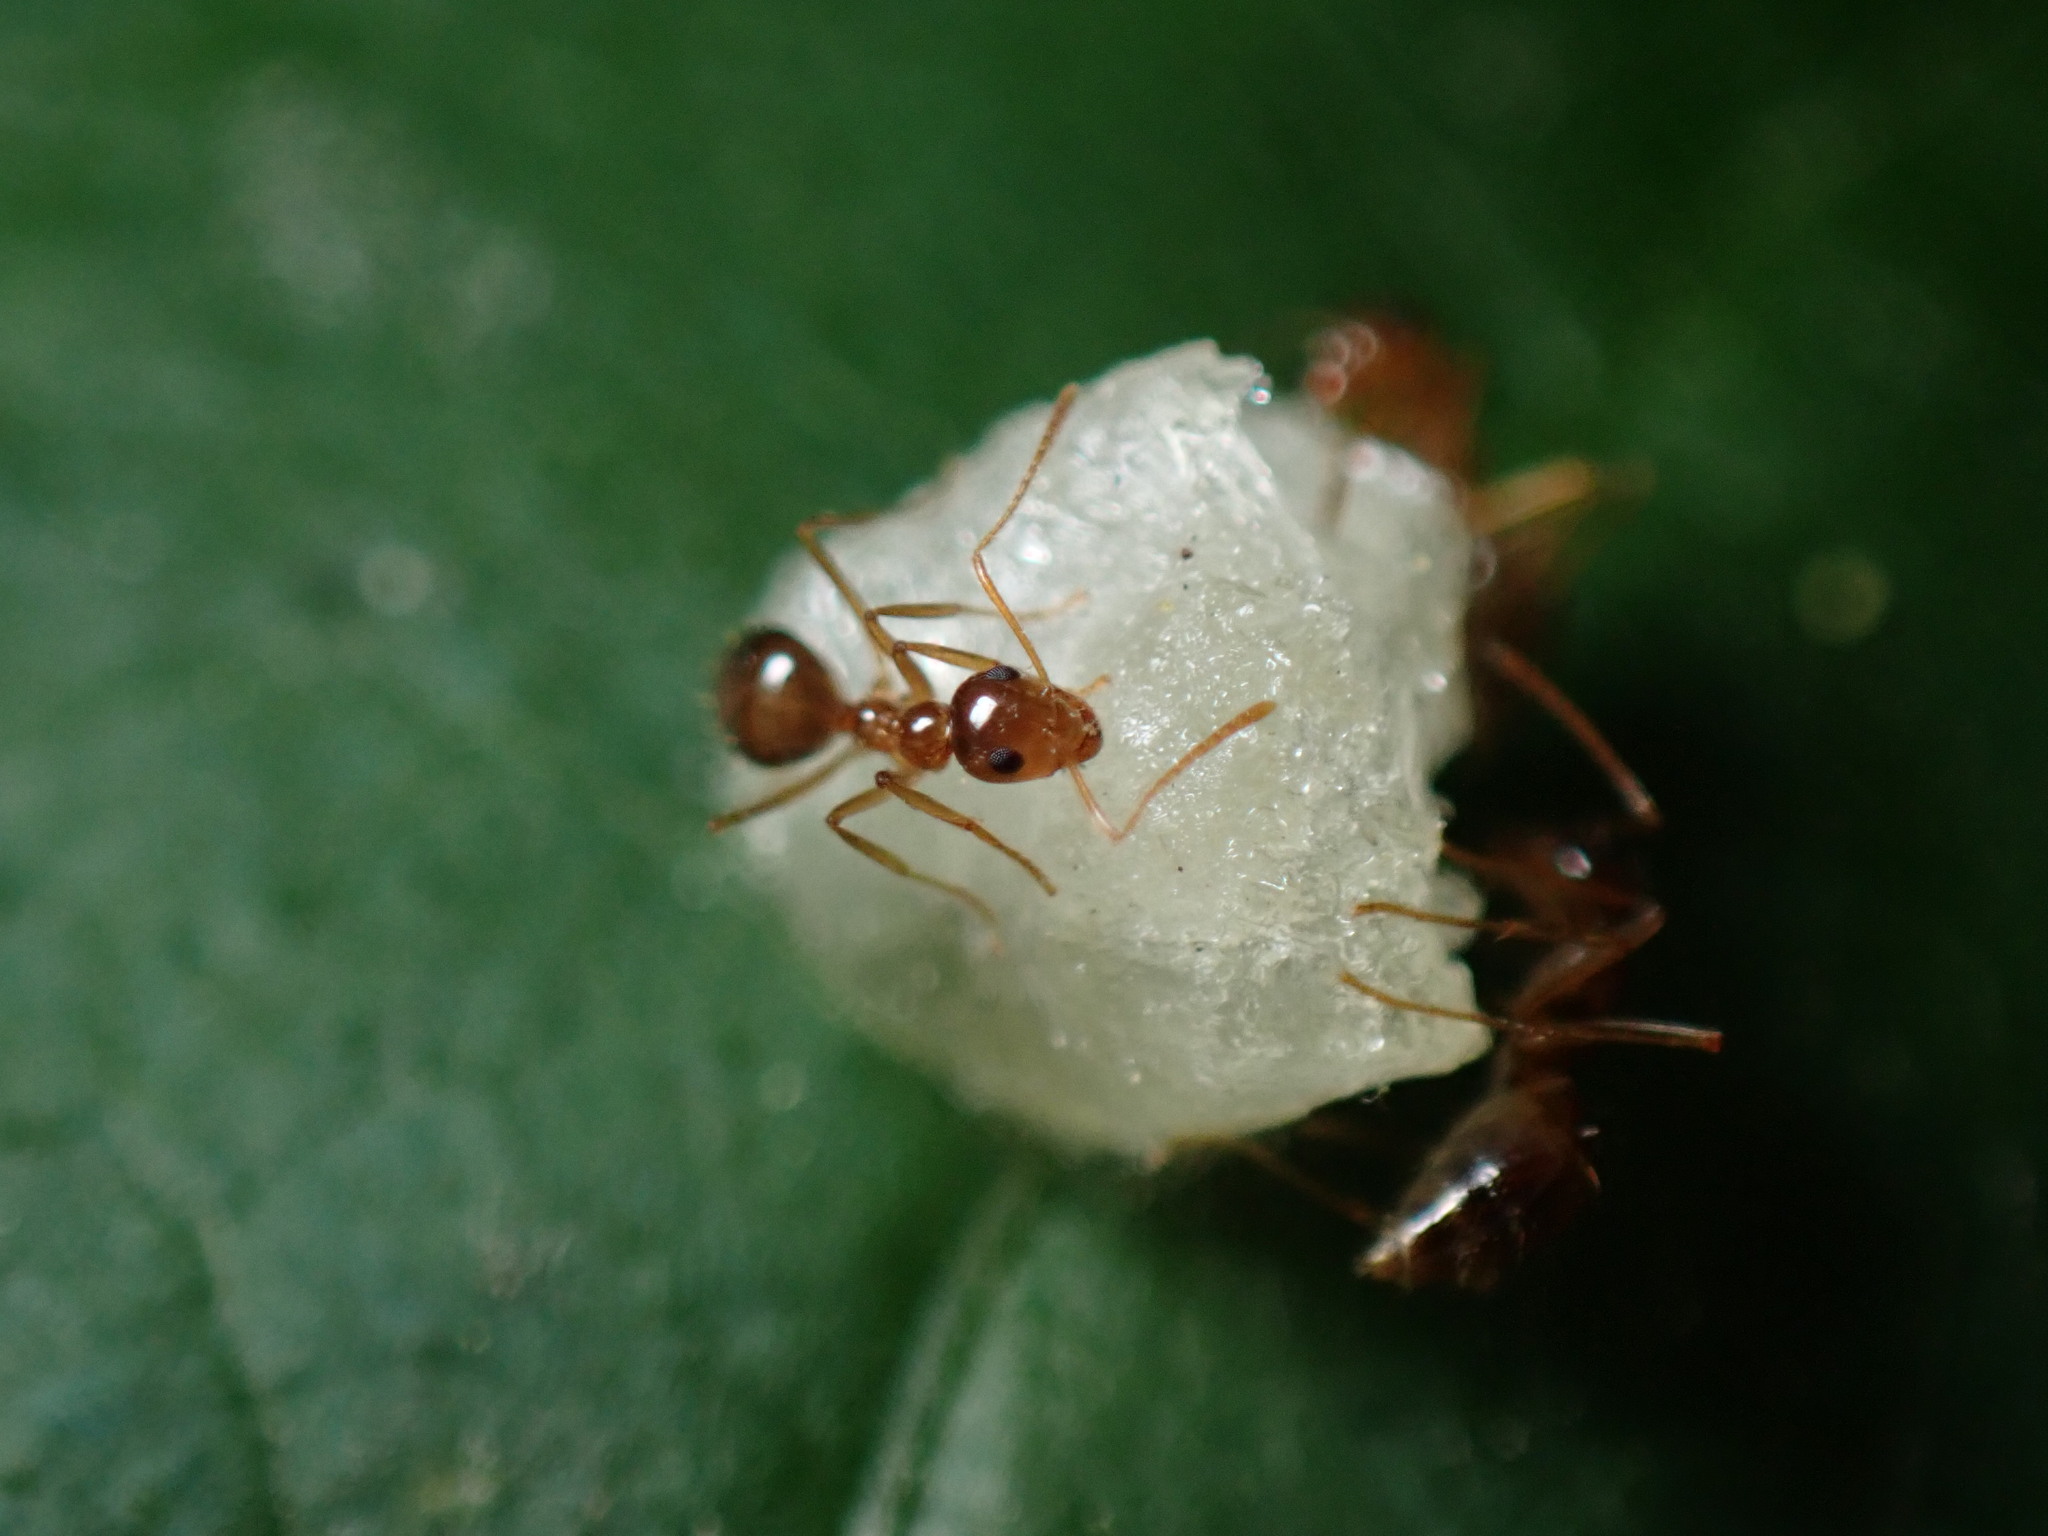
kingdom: Animalia
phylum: Arthropoda
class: Insecta
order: Hymenoptera
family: Formicidae
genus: Prenolepis
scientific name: Prenolepis imparis
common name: Small honey ant
